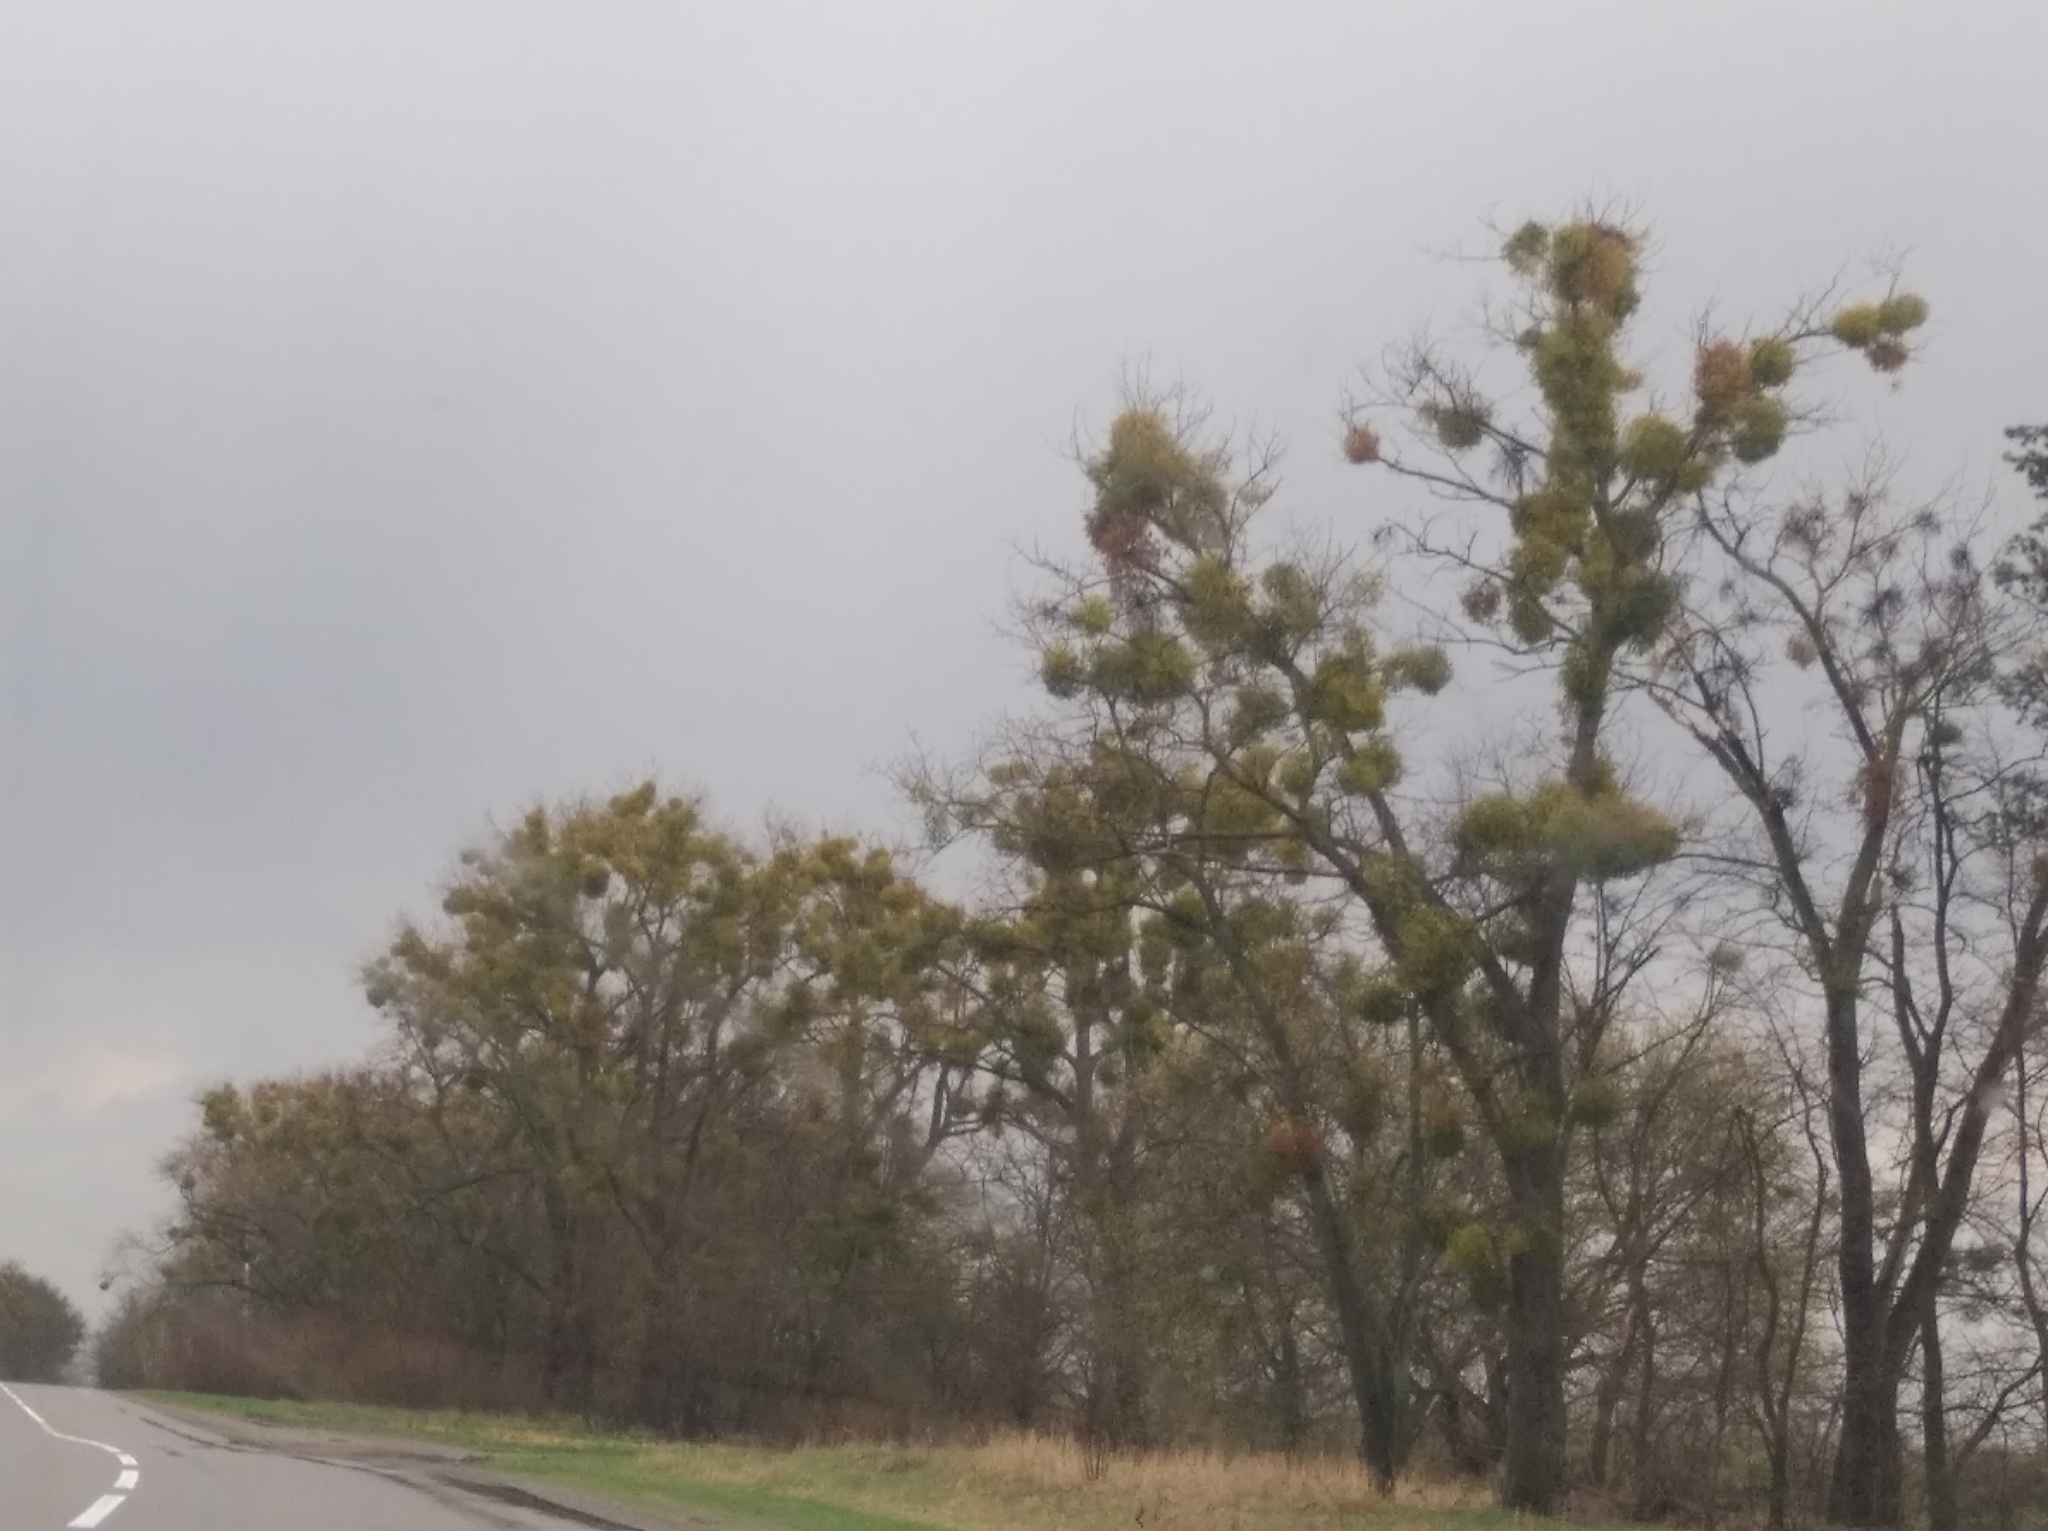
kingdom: Plantae
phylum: Tracheophyta
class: Magnoliopsida
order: Santalales
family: Viscaceae
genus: Viscum
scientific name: Viscum album
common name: Mistletoe
